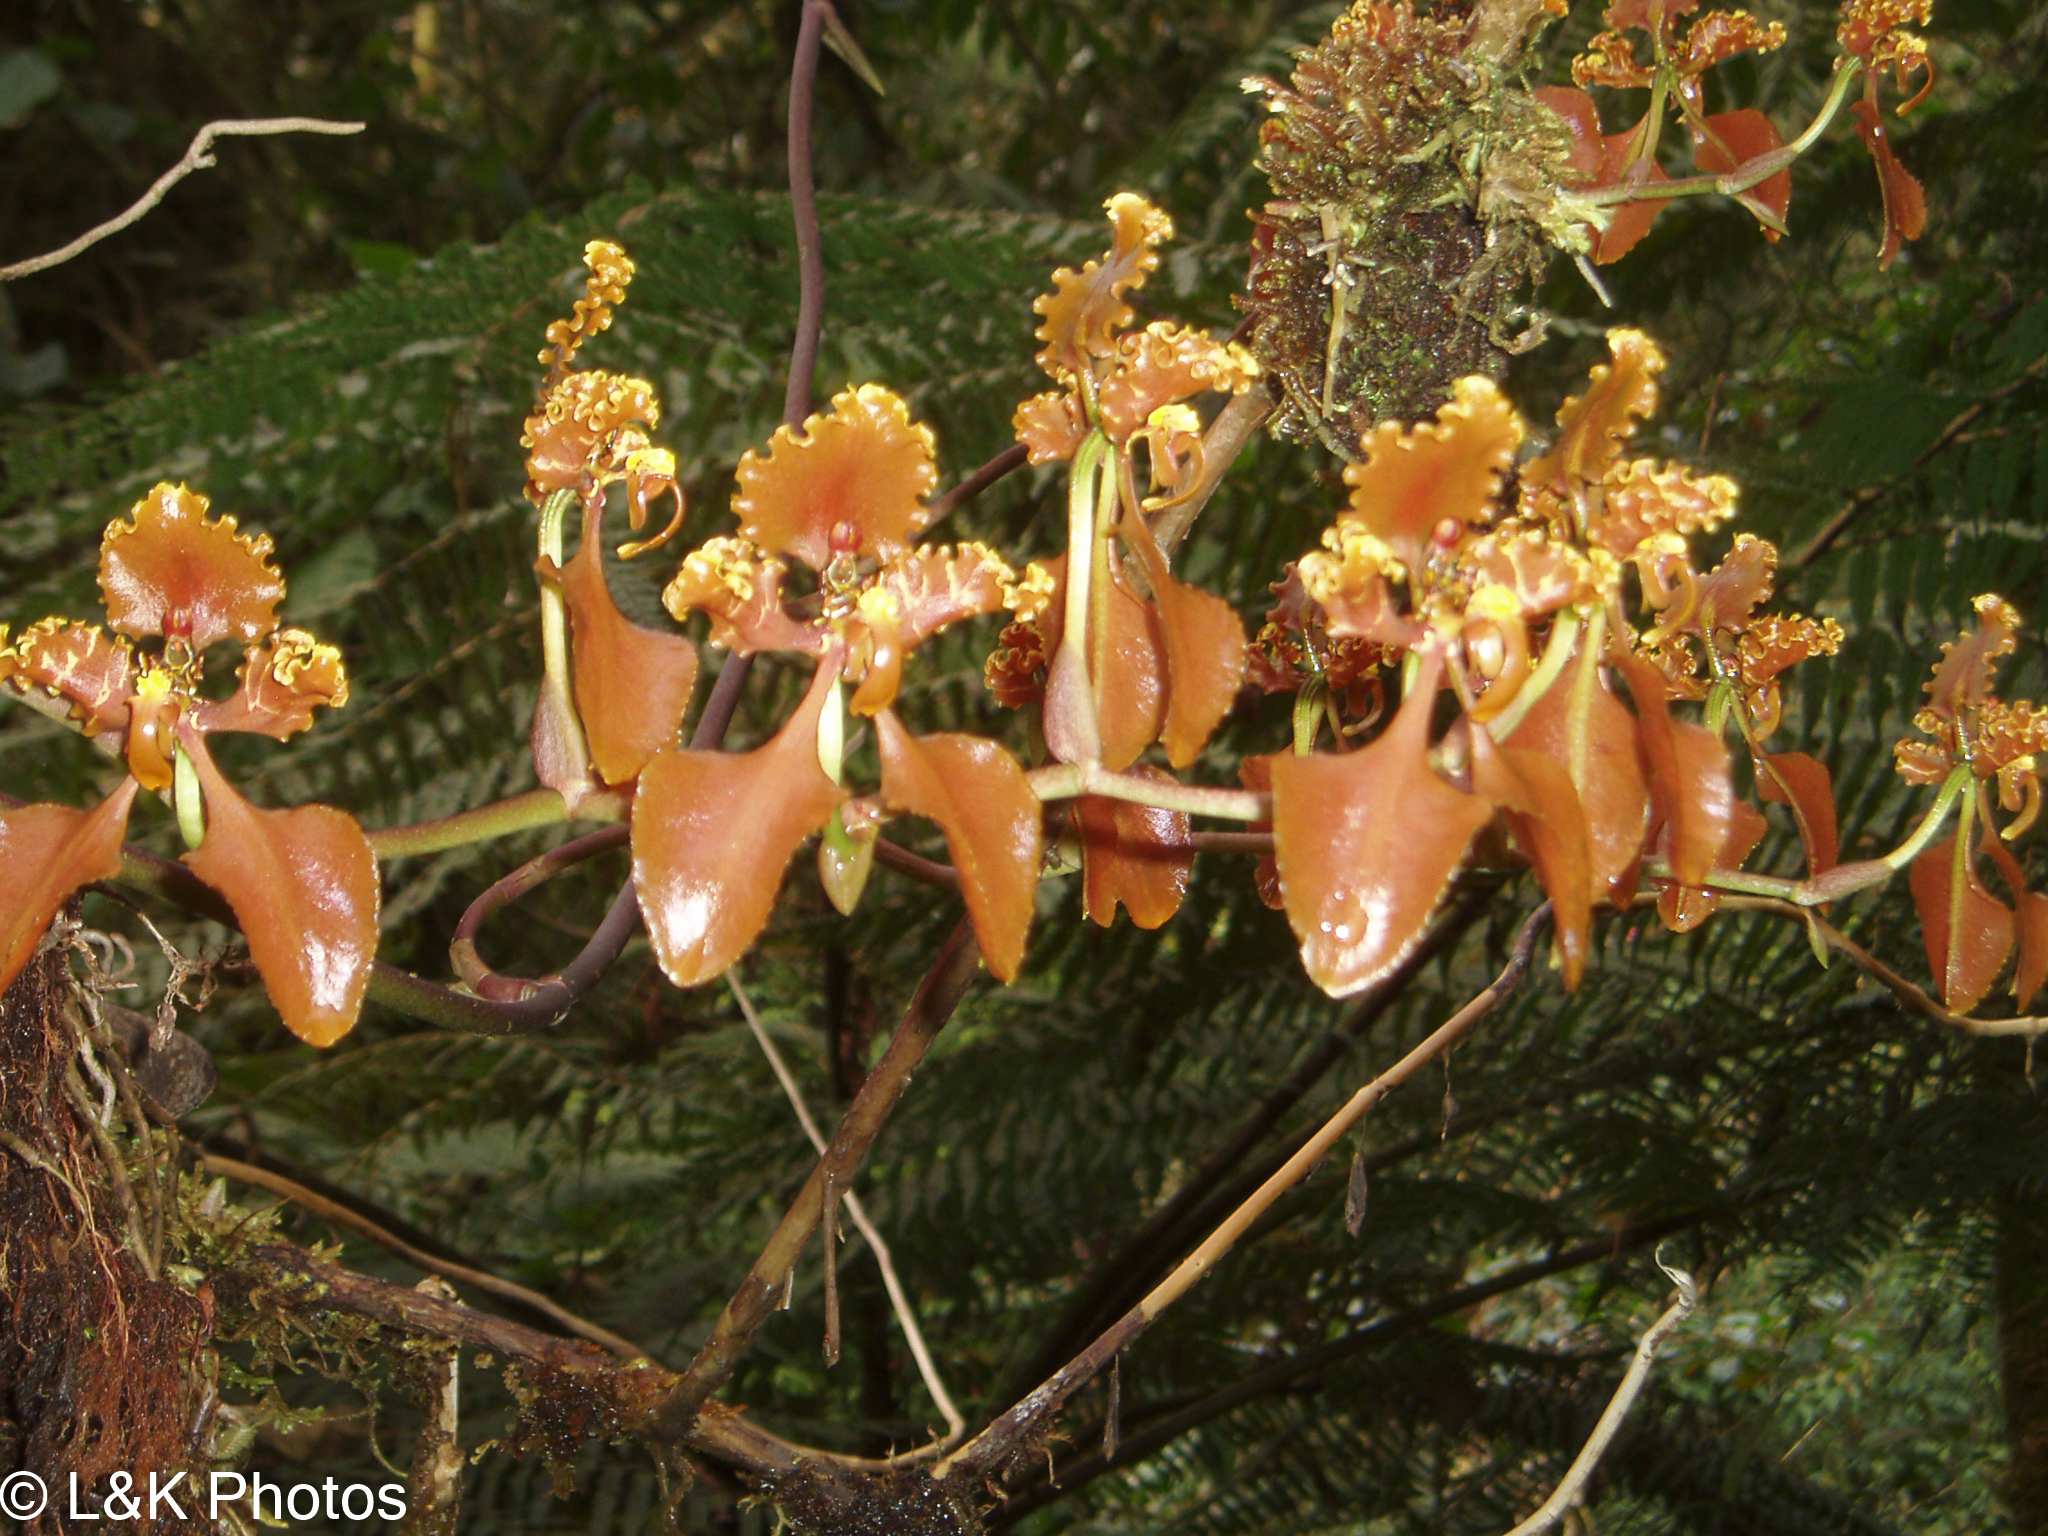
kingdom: Plantae
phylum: Tracheophyta
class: Liliopsida
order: Asparagales
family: Orchidaceae
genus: Cyrtochilum
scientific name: Cyrtochilum trifurcatum
